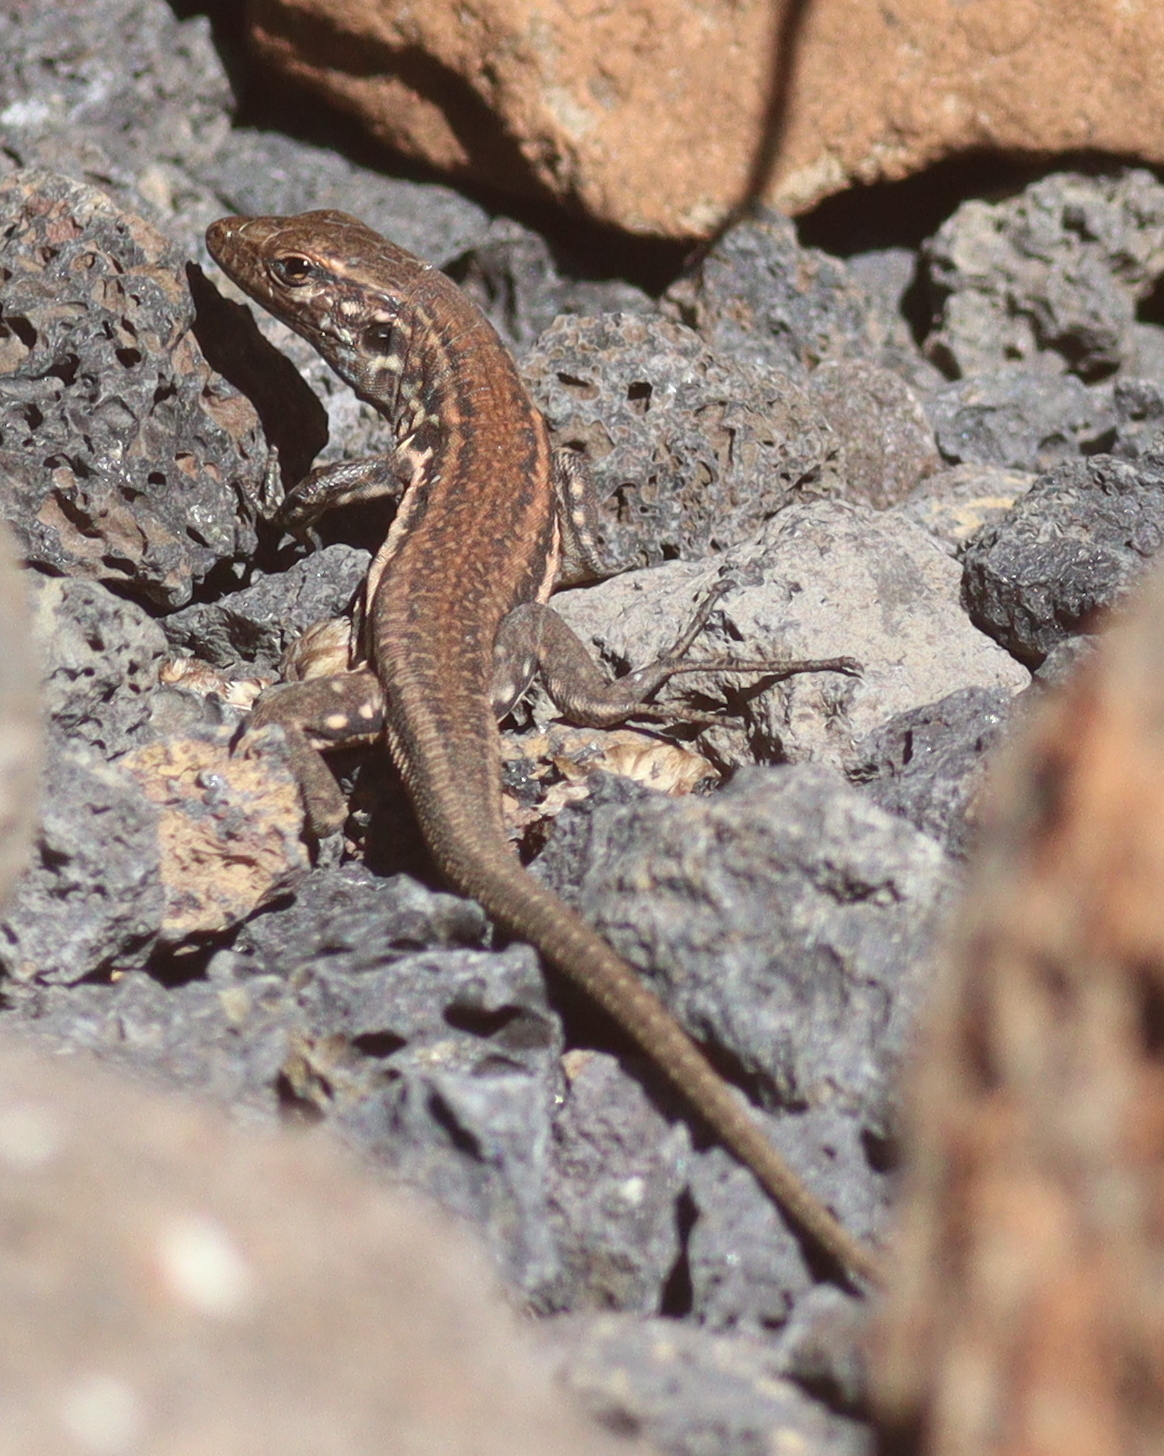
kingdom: Animalia
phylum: Chordata
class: Squamata
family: Lacertidae
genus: Gallotia
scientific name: Gallotia galloti
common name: Gallot's lizard
